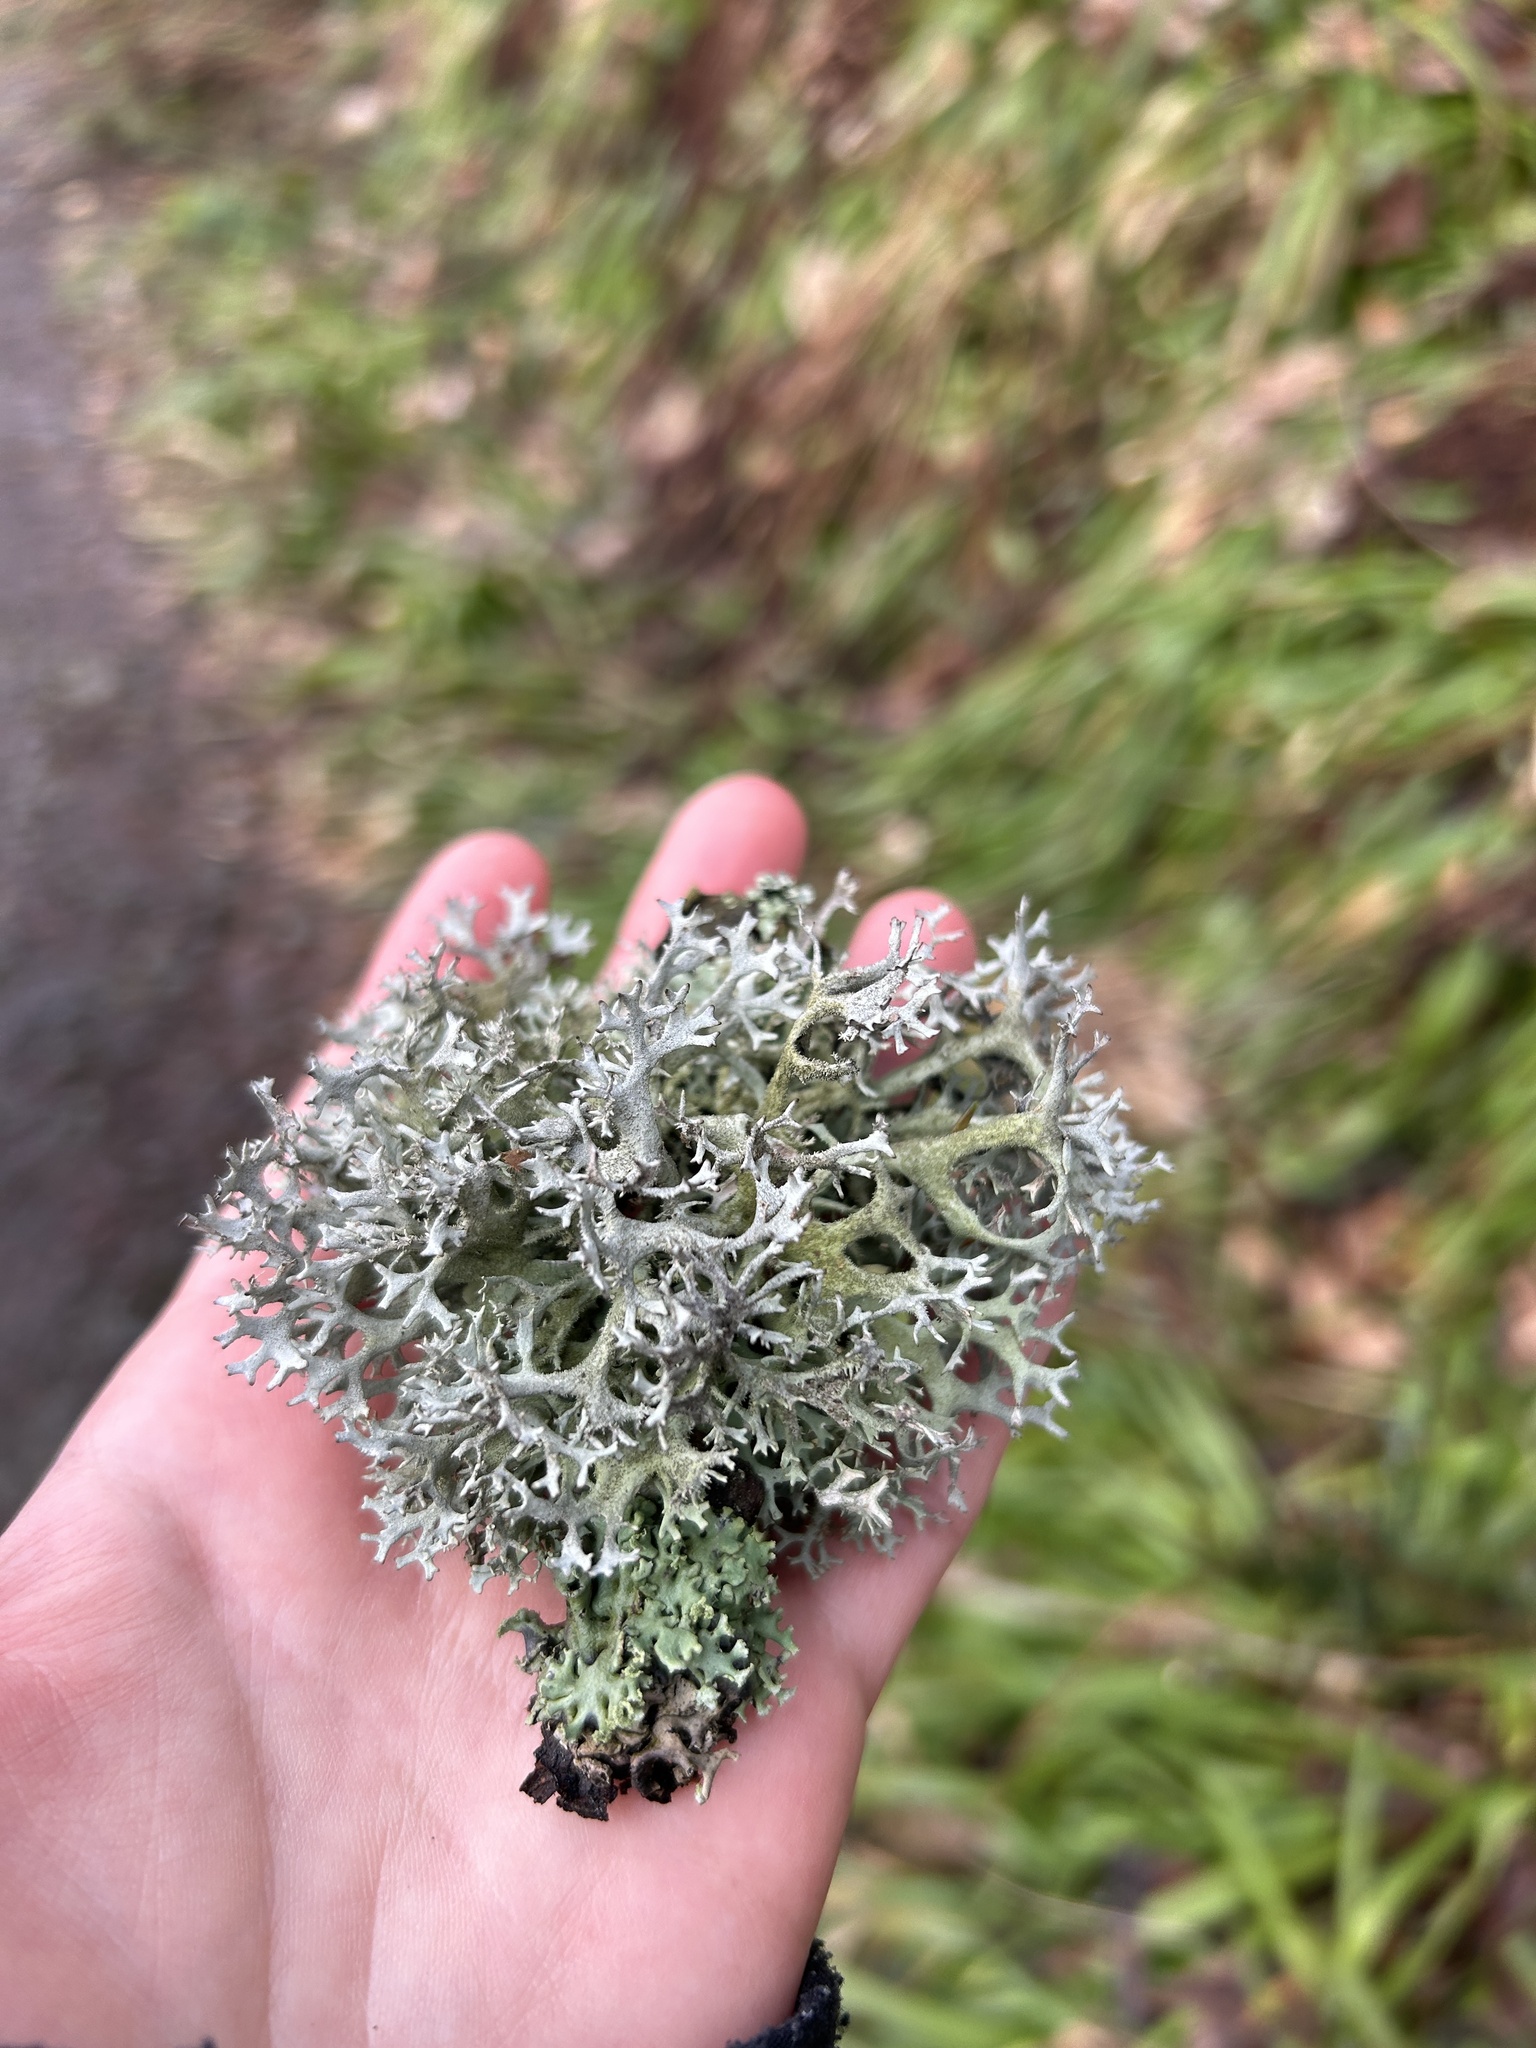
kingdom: Fungi
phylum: Ascomycota
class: Lecanoromycetes
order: Lecanorales
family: Parmeliaceae
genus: Pseudevernia
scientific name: Pseudevernia furfuracea
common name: Tree moss
